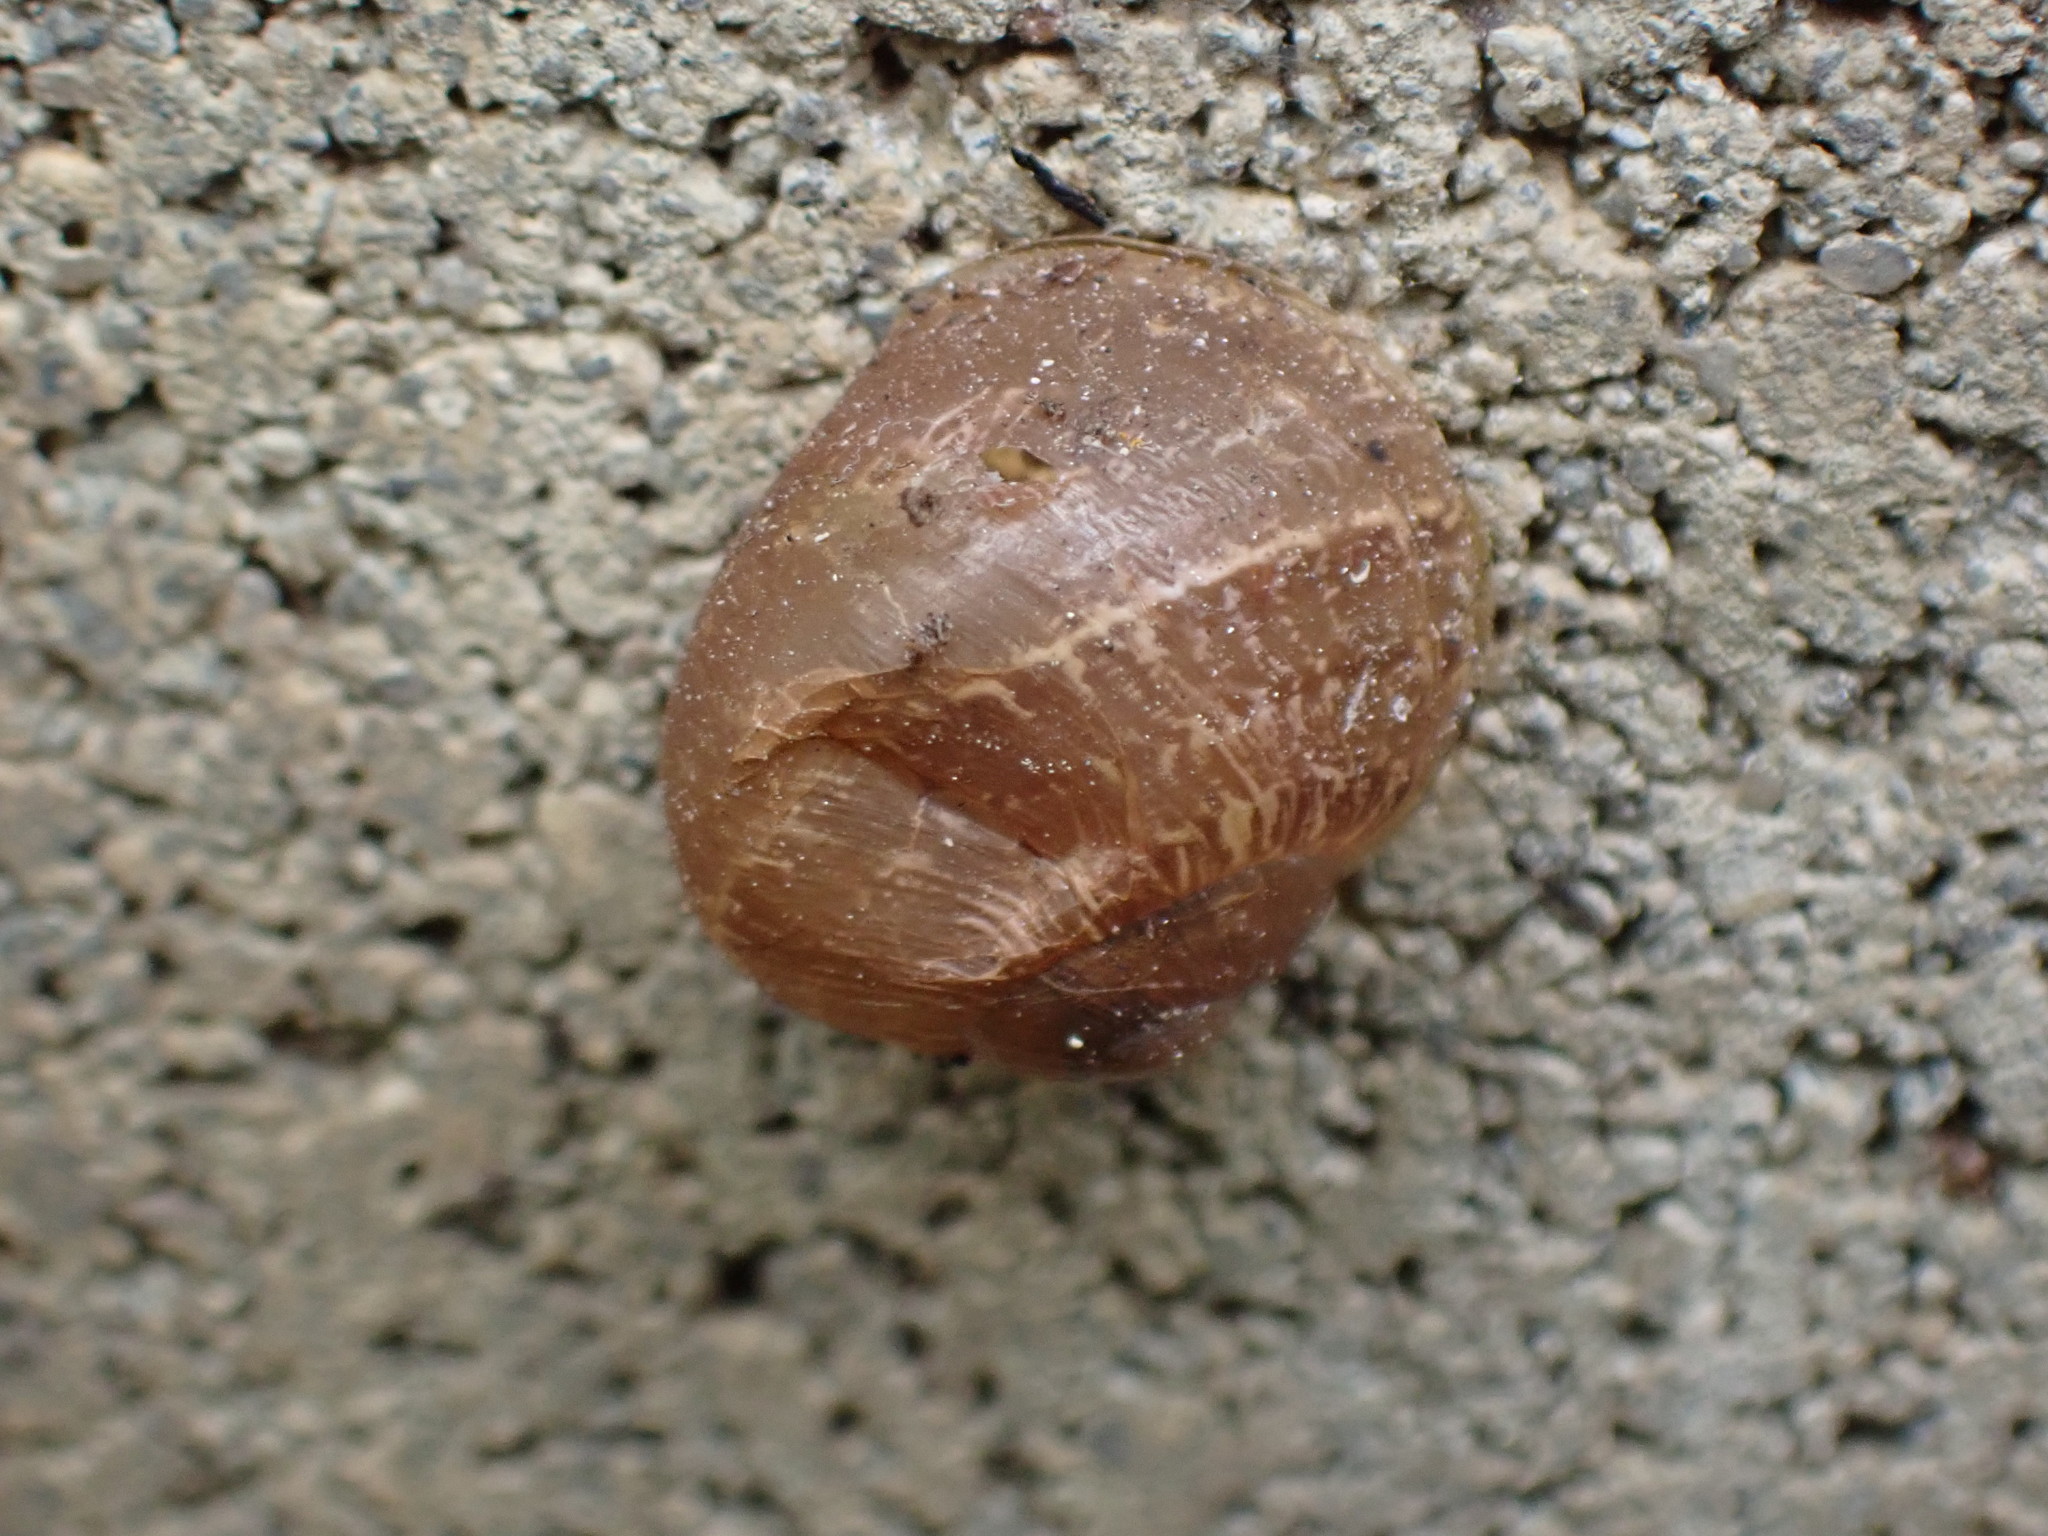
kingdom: Animalia
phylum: Mollusca
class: Gastropoda
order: Stylommatophora
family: Helicidae
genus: Cornu
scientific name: Cornu aspersum
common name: Brown garden snail
